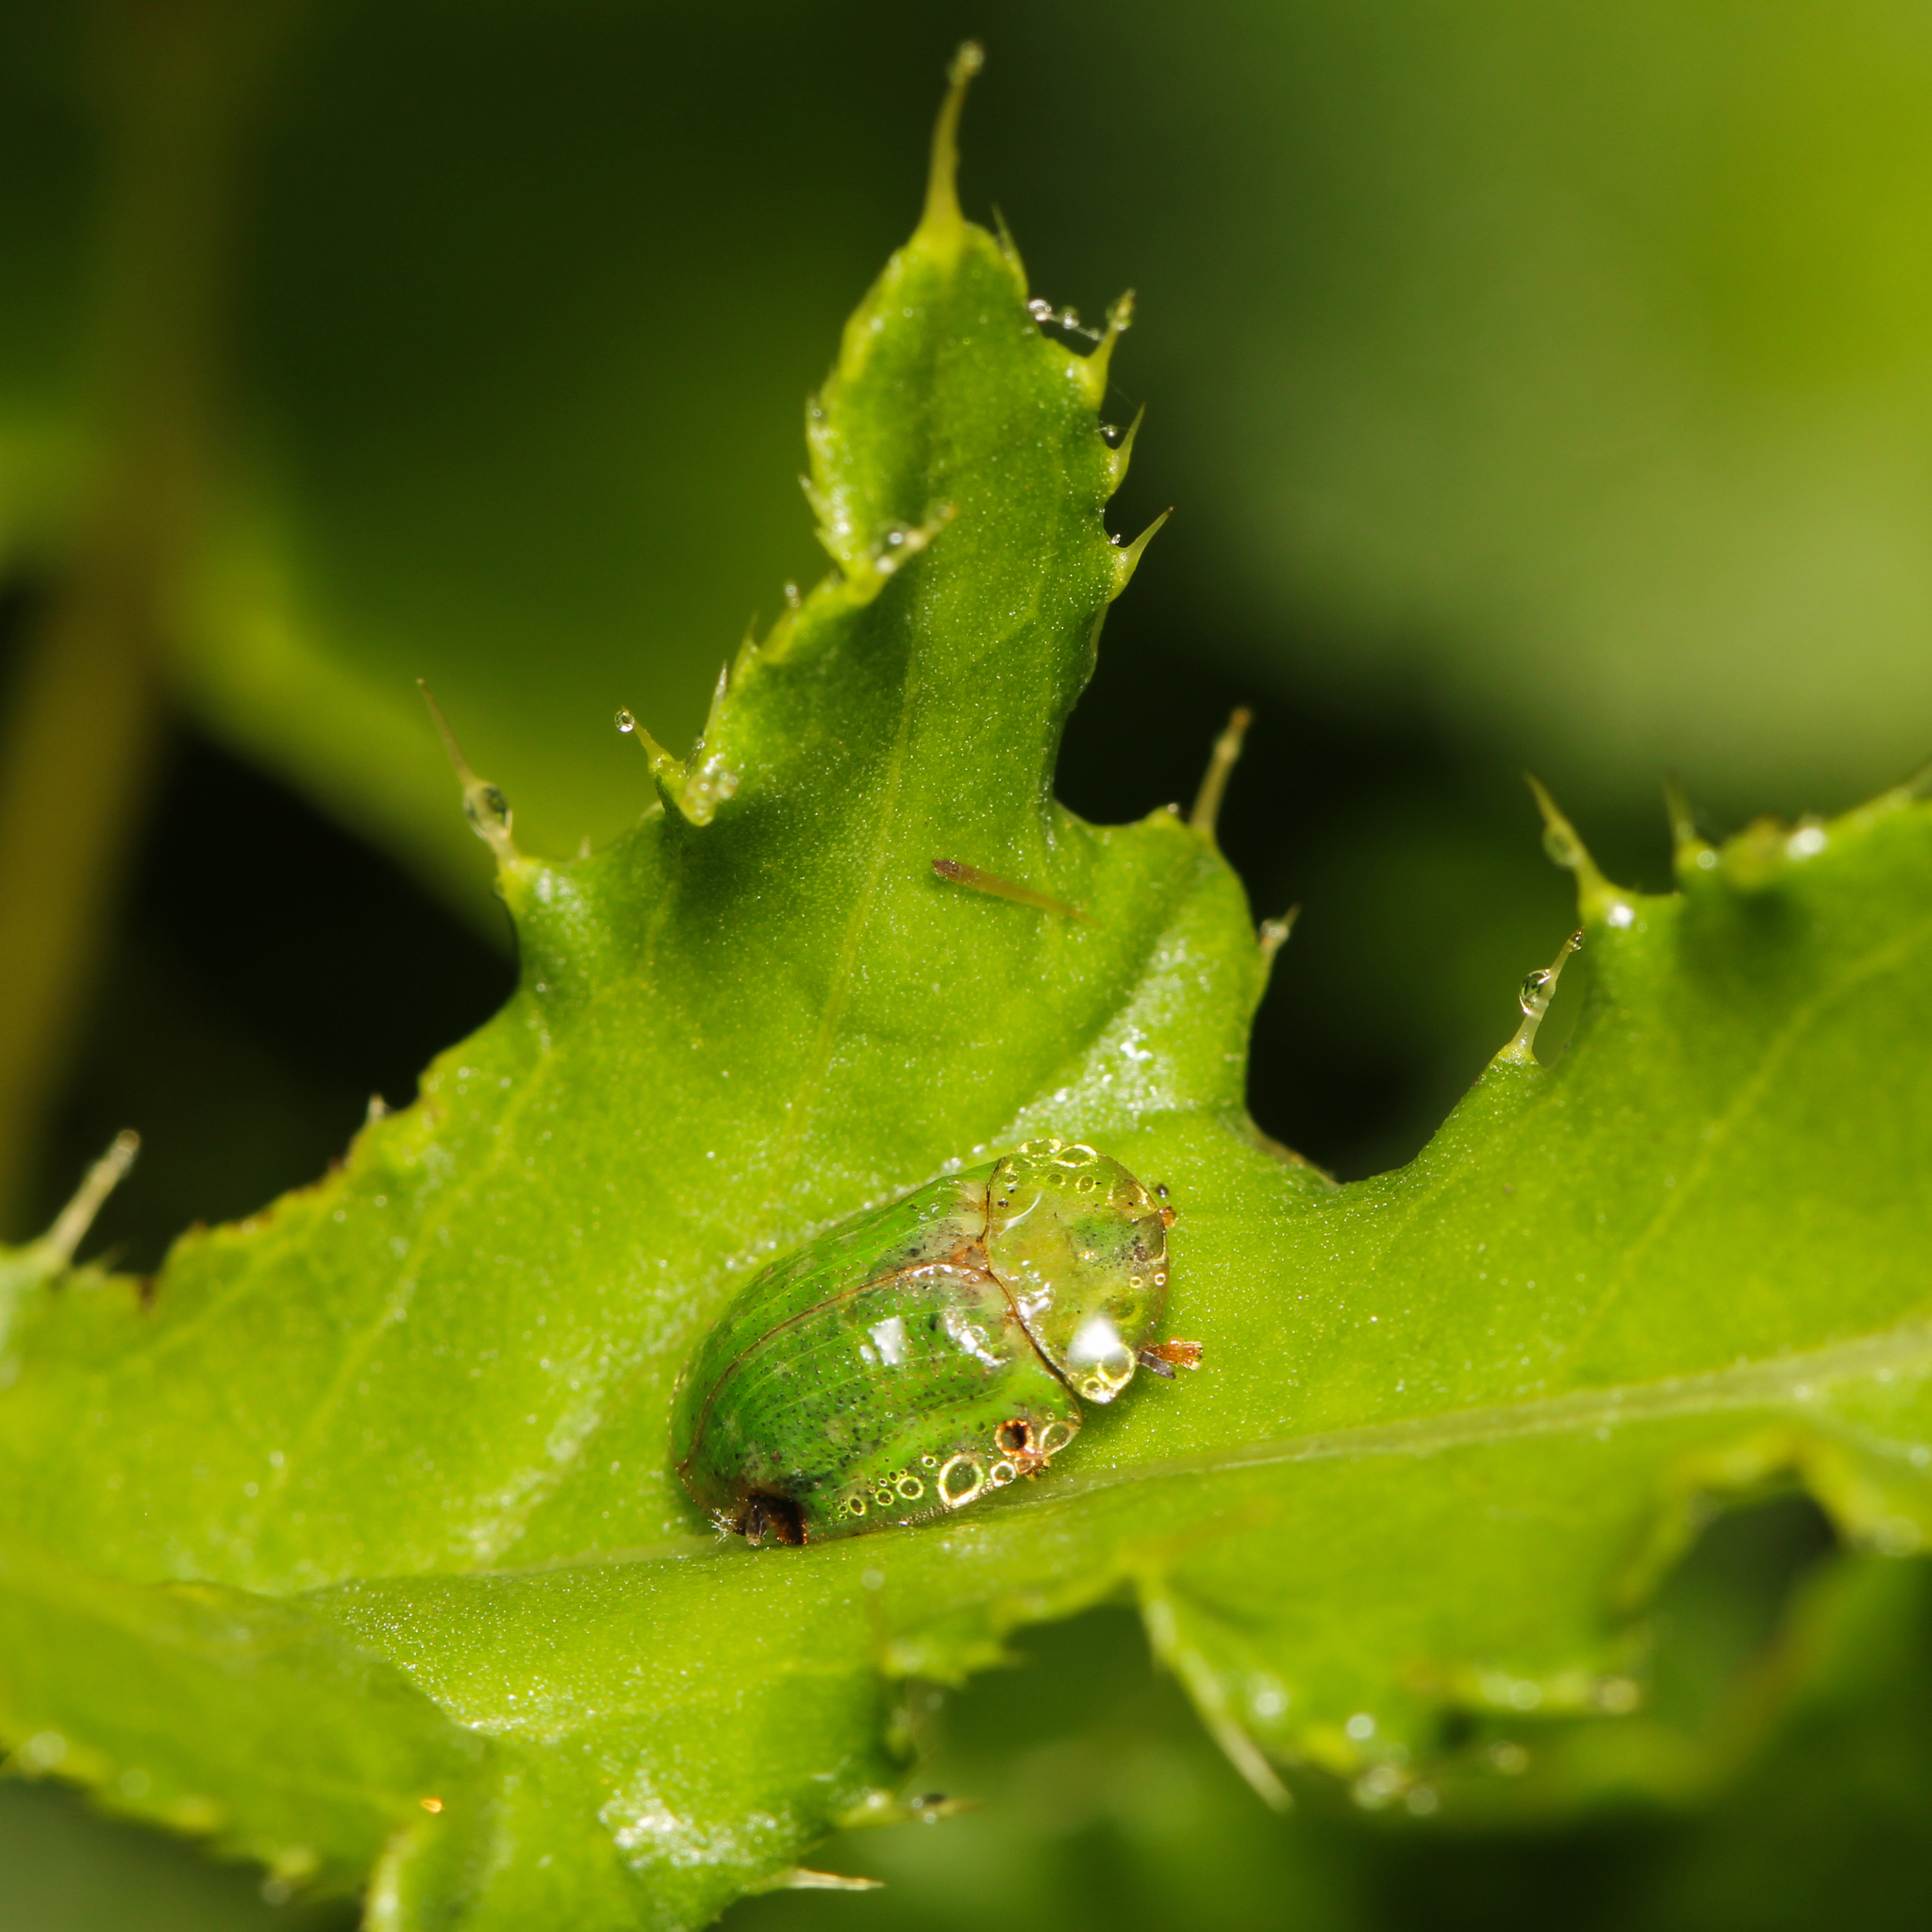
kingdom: Animalia
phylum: Arthropoda
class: Insecta
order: Coleoptera
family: Chrysomelidae
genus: Cassida
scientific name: Cassida rubiginosa
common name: Thistle tortoise beetle
